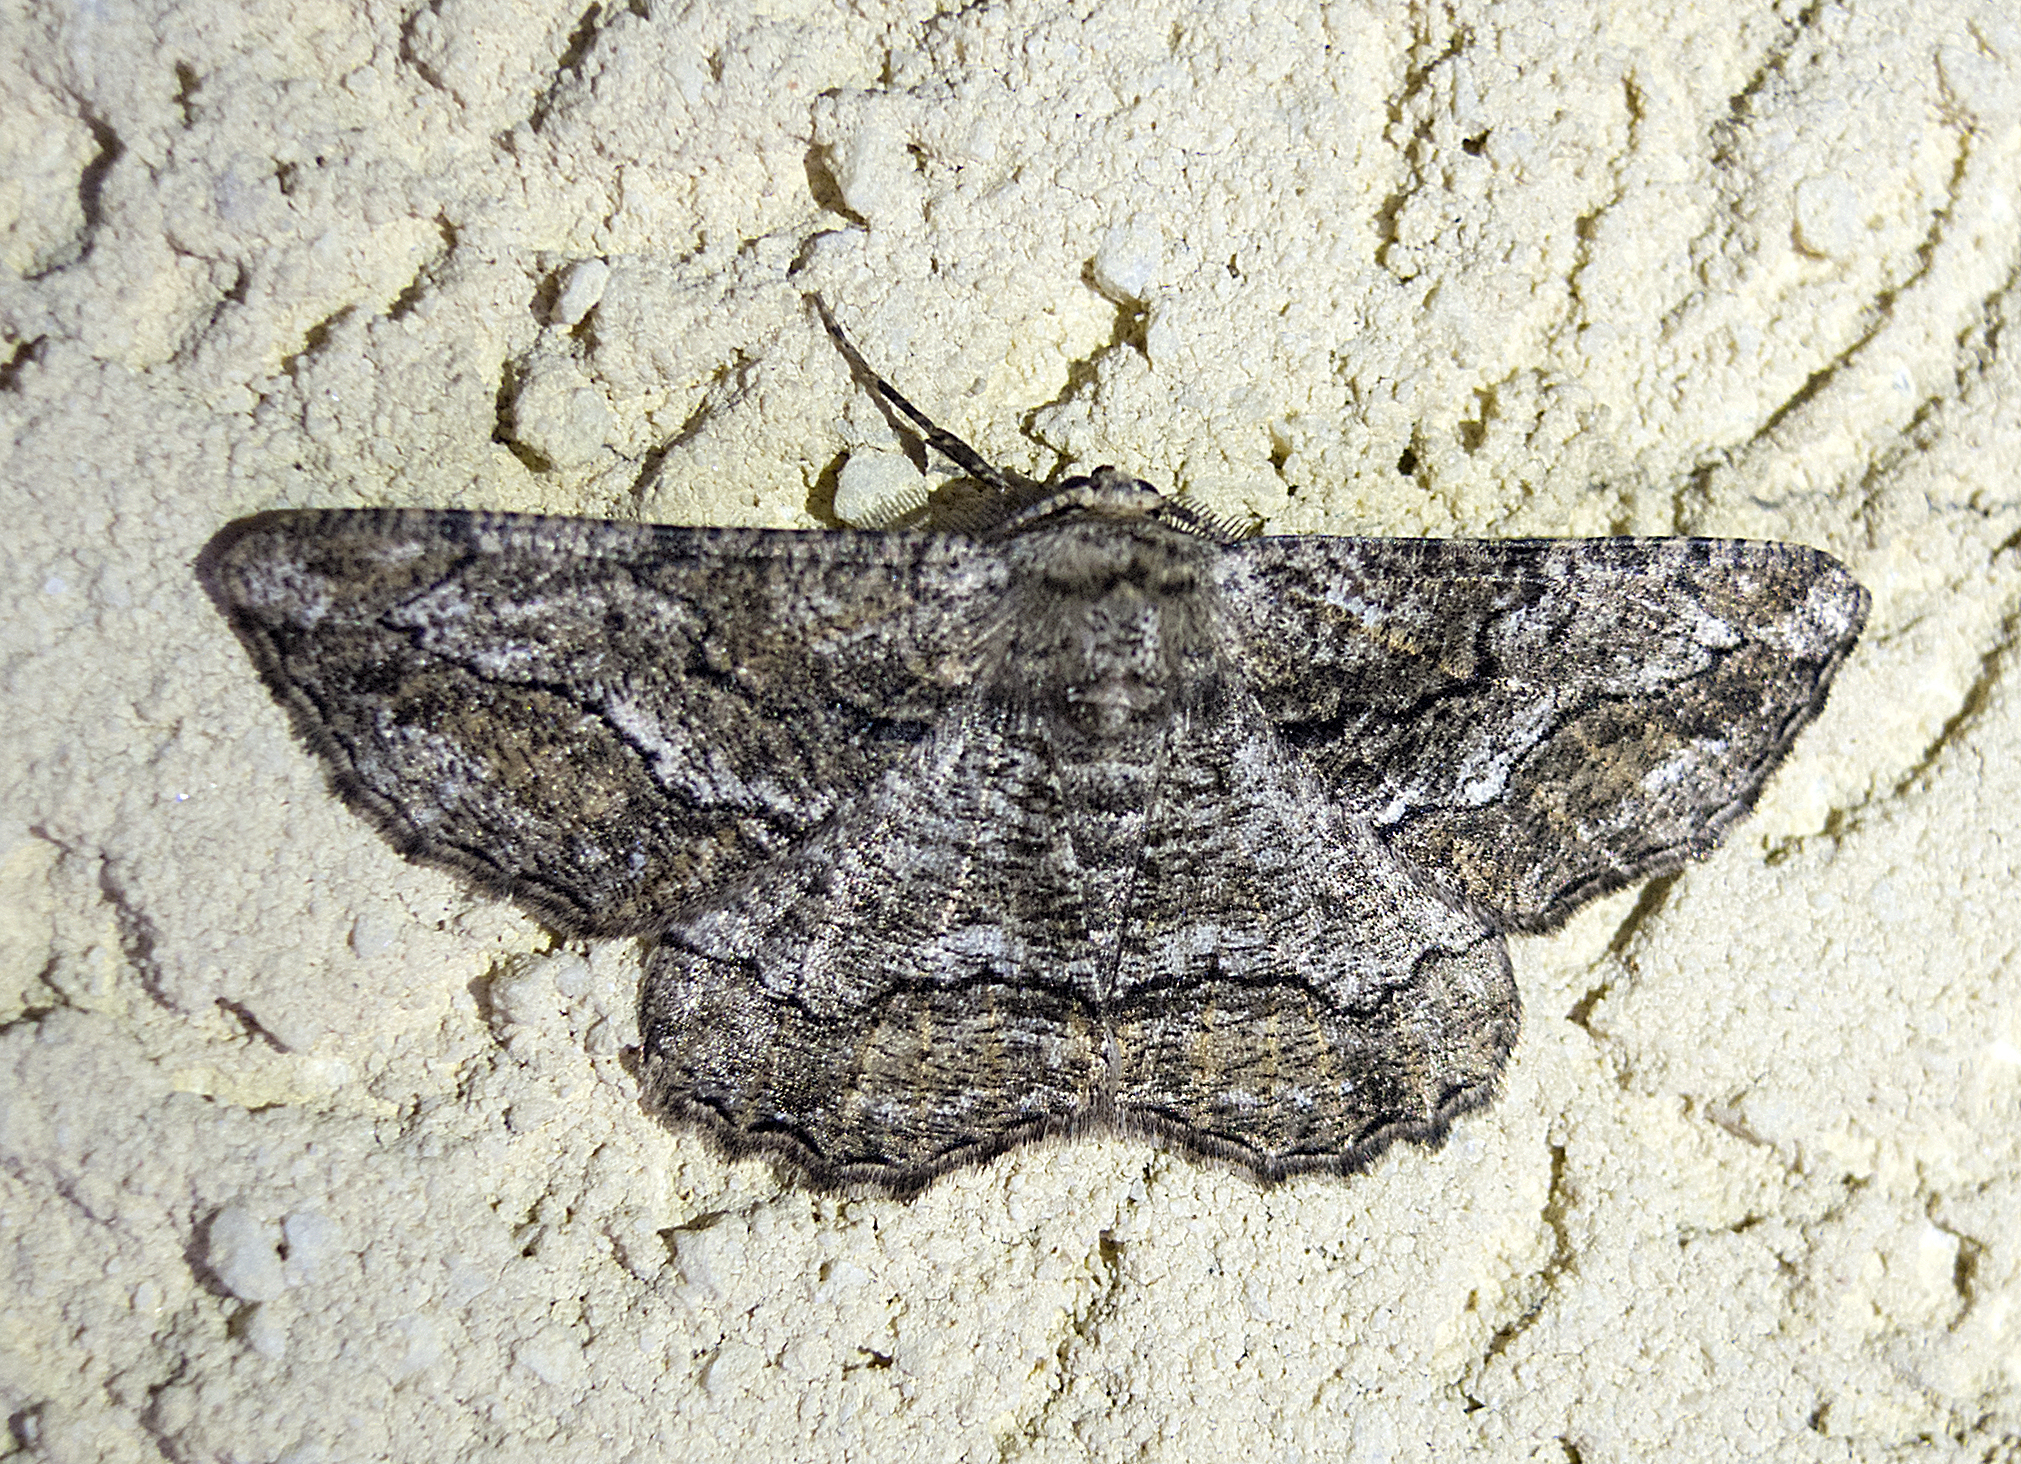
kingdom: Animalia
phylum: Arthropoda
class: Insecta
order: Lepidoptera
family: Geometridae
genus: Synopsia
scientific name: Synopsia sociaria
